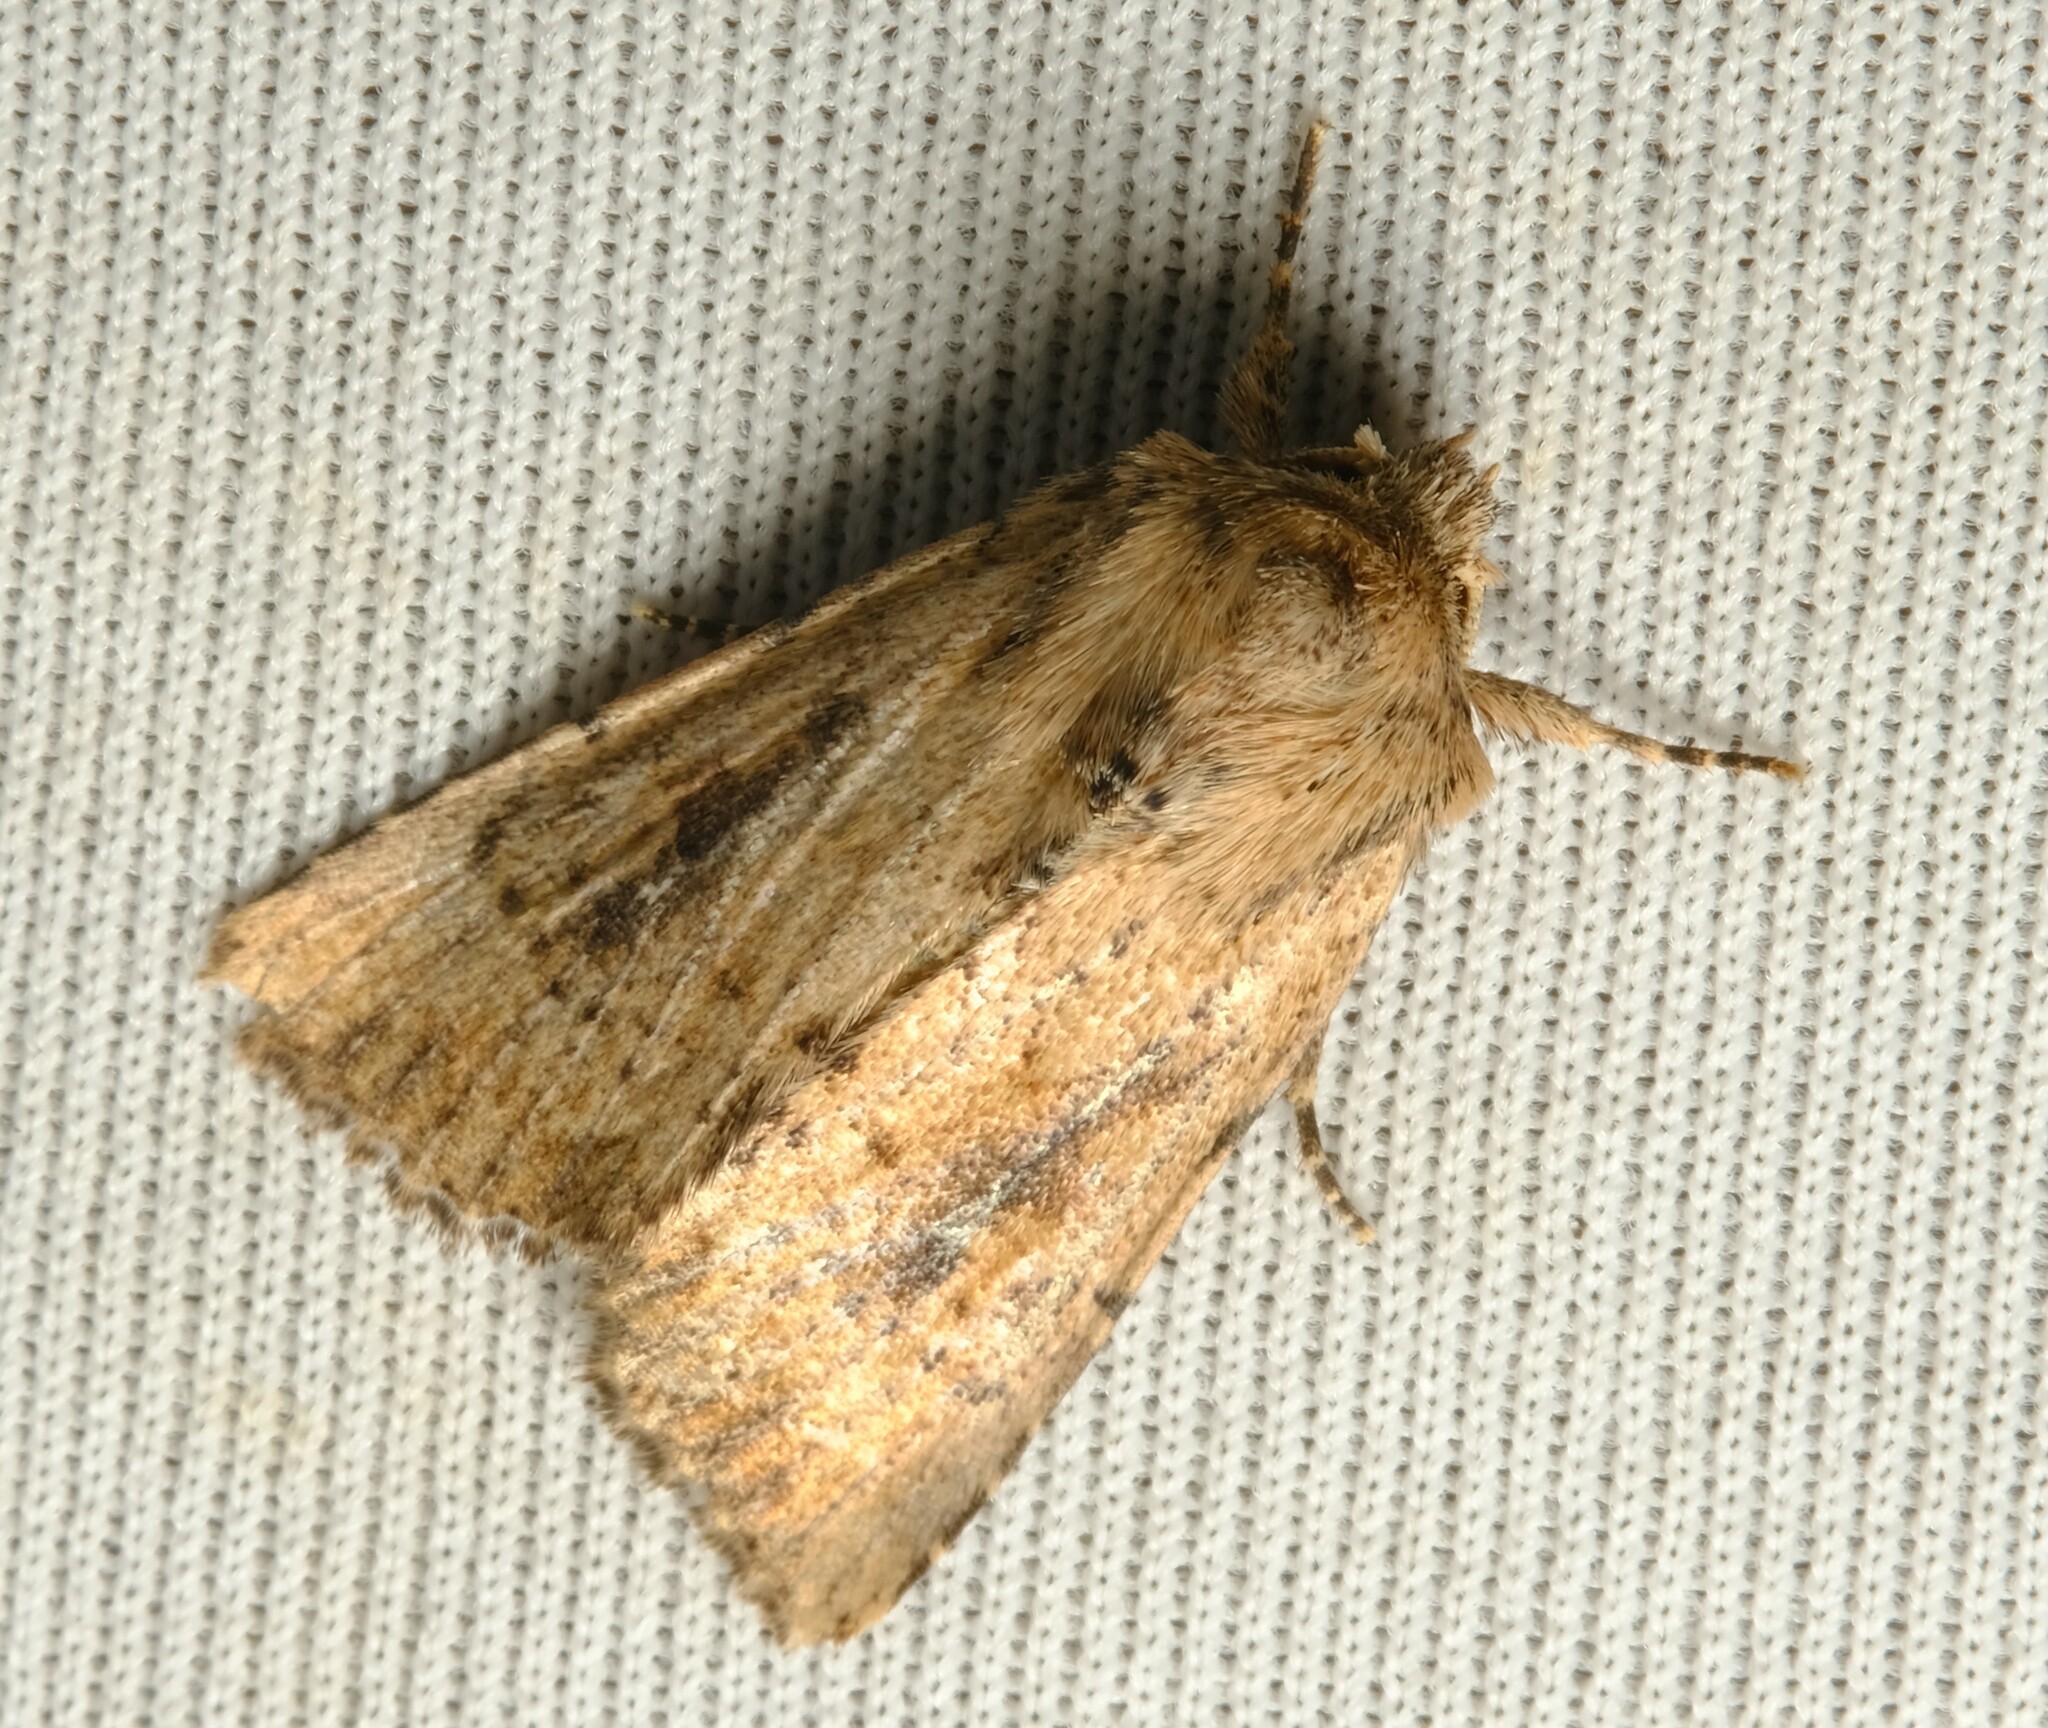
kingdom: Animalia
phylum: Arthropoda
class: Insecta
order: Lepidoptera
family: Noctuidae
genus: Leucania
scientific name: Leucania obumbrata
